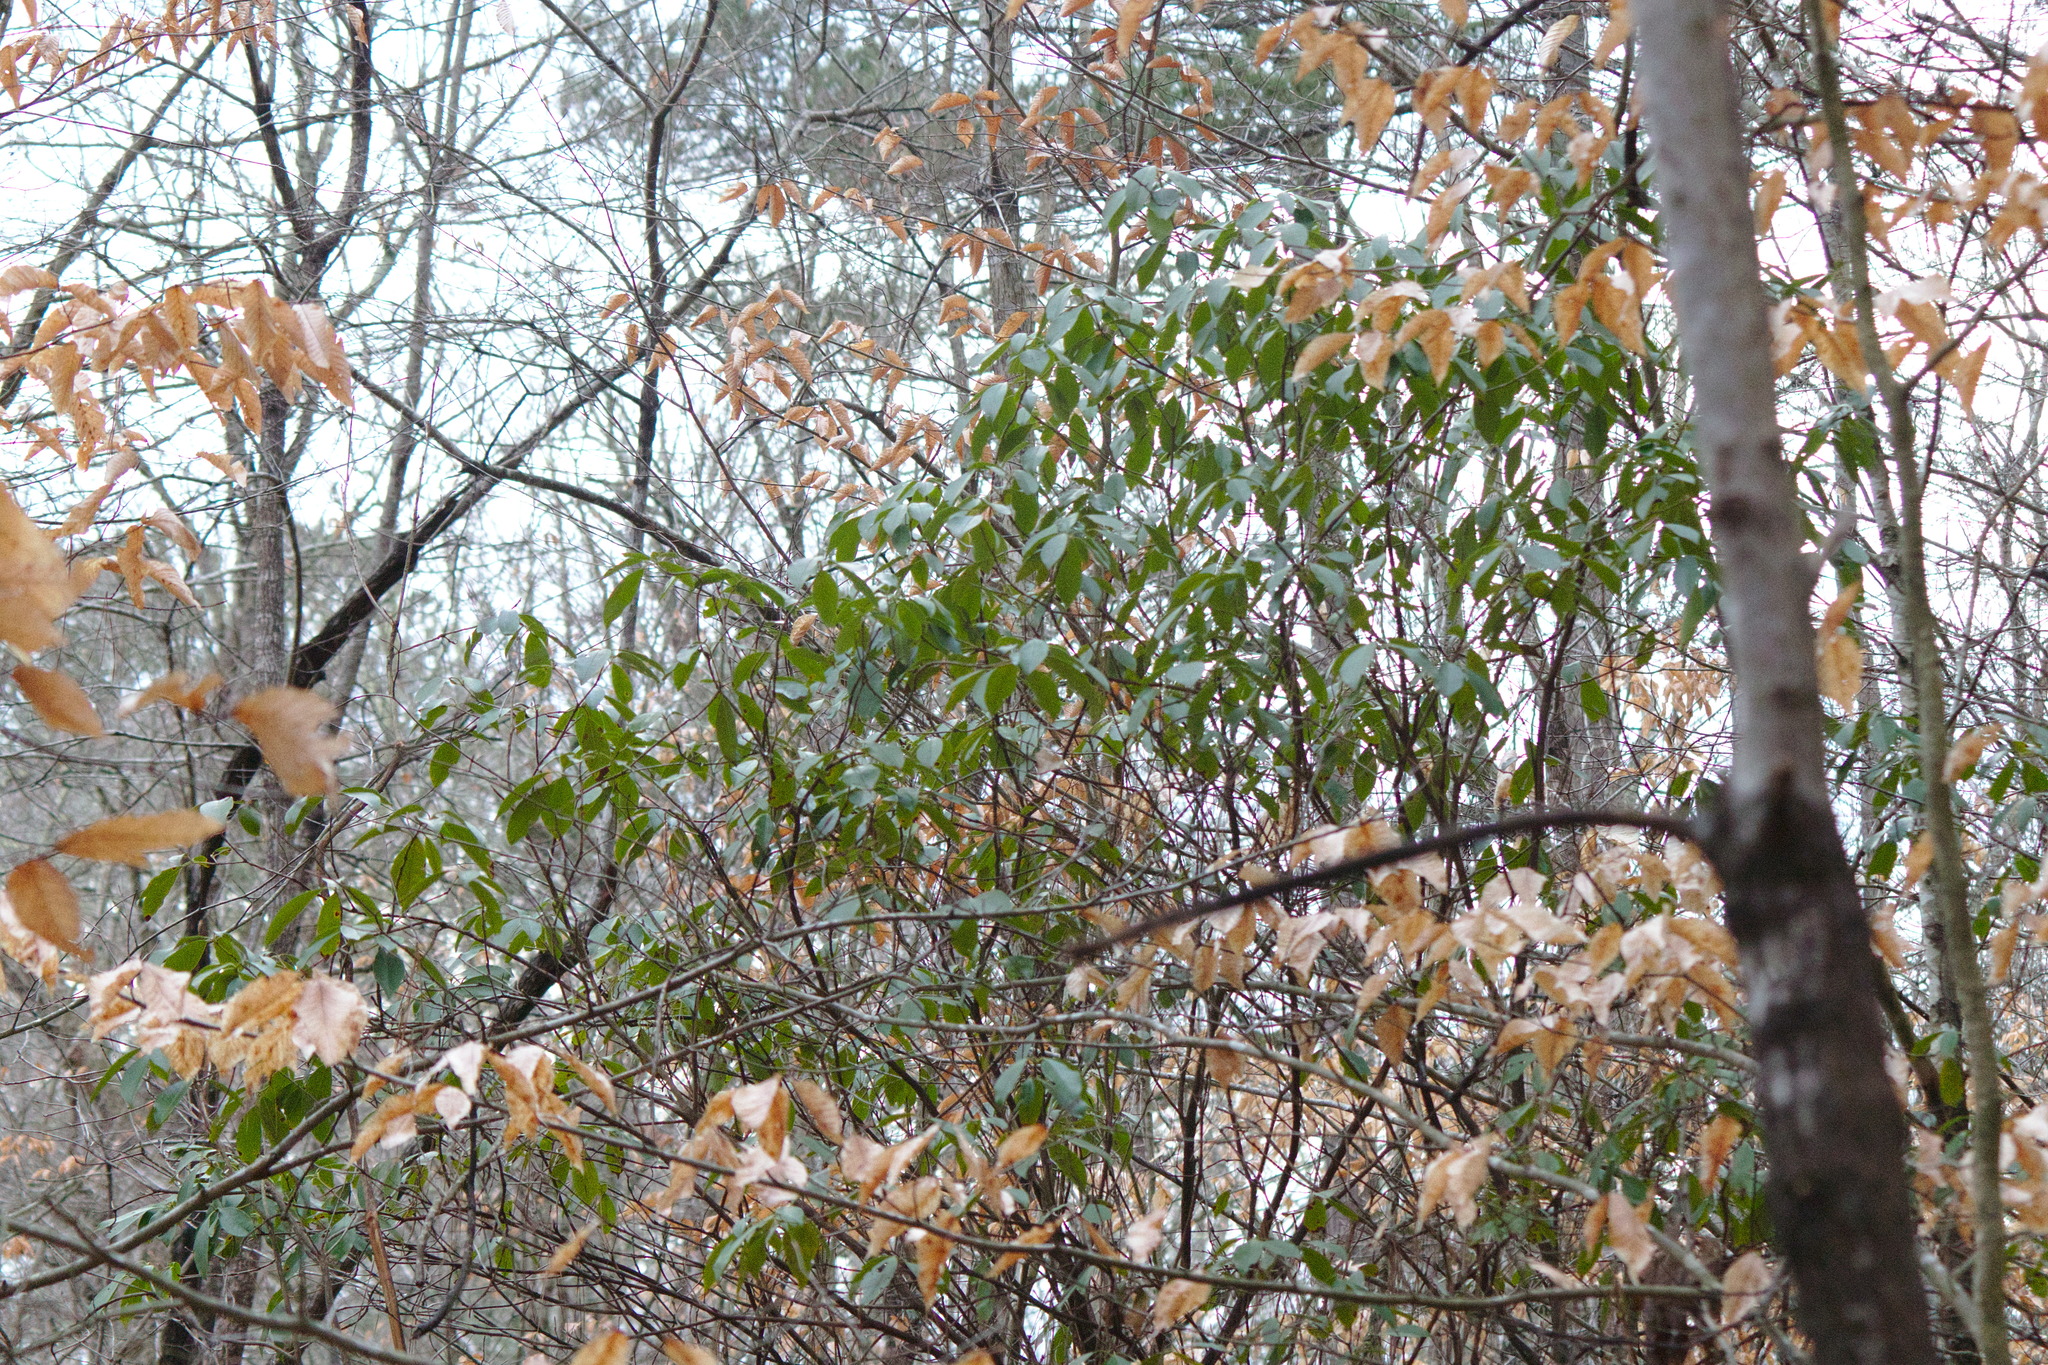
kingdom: Plantae
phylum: Tracheophyta
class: Magnoliopsida
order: Fagales
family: Fagaceae
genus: Fagus
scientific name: Fagus grandifolia
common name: American beech
